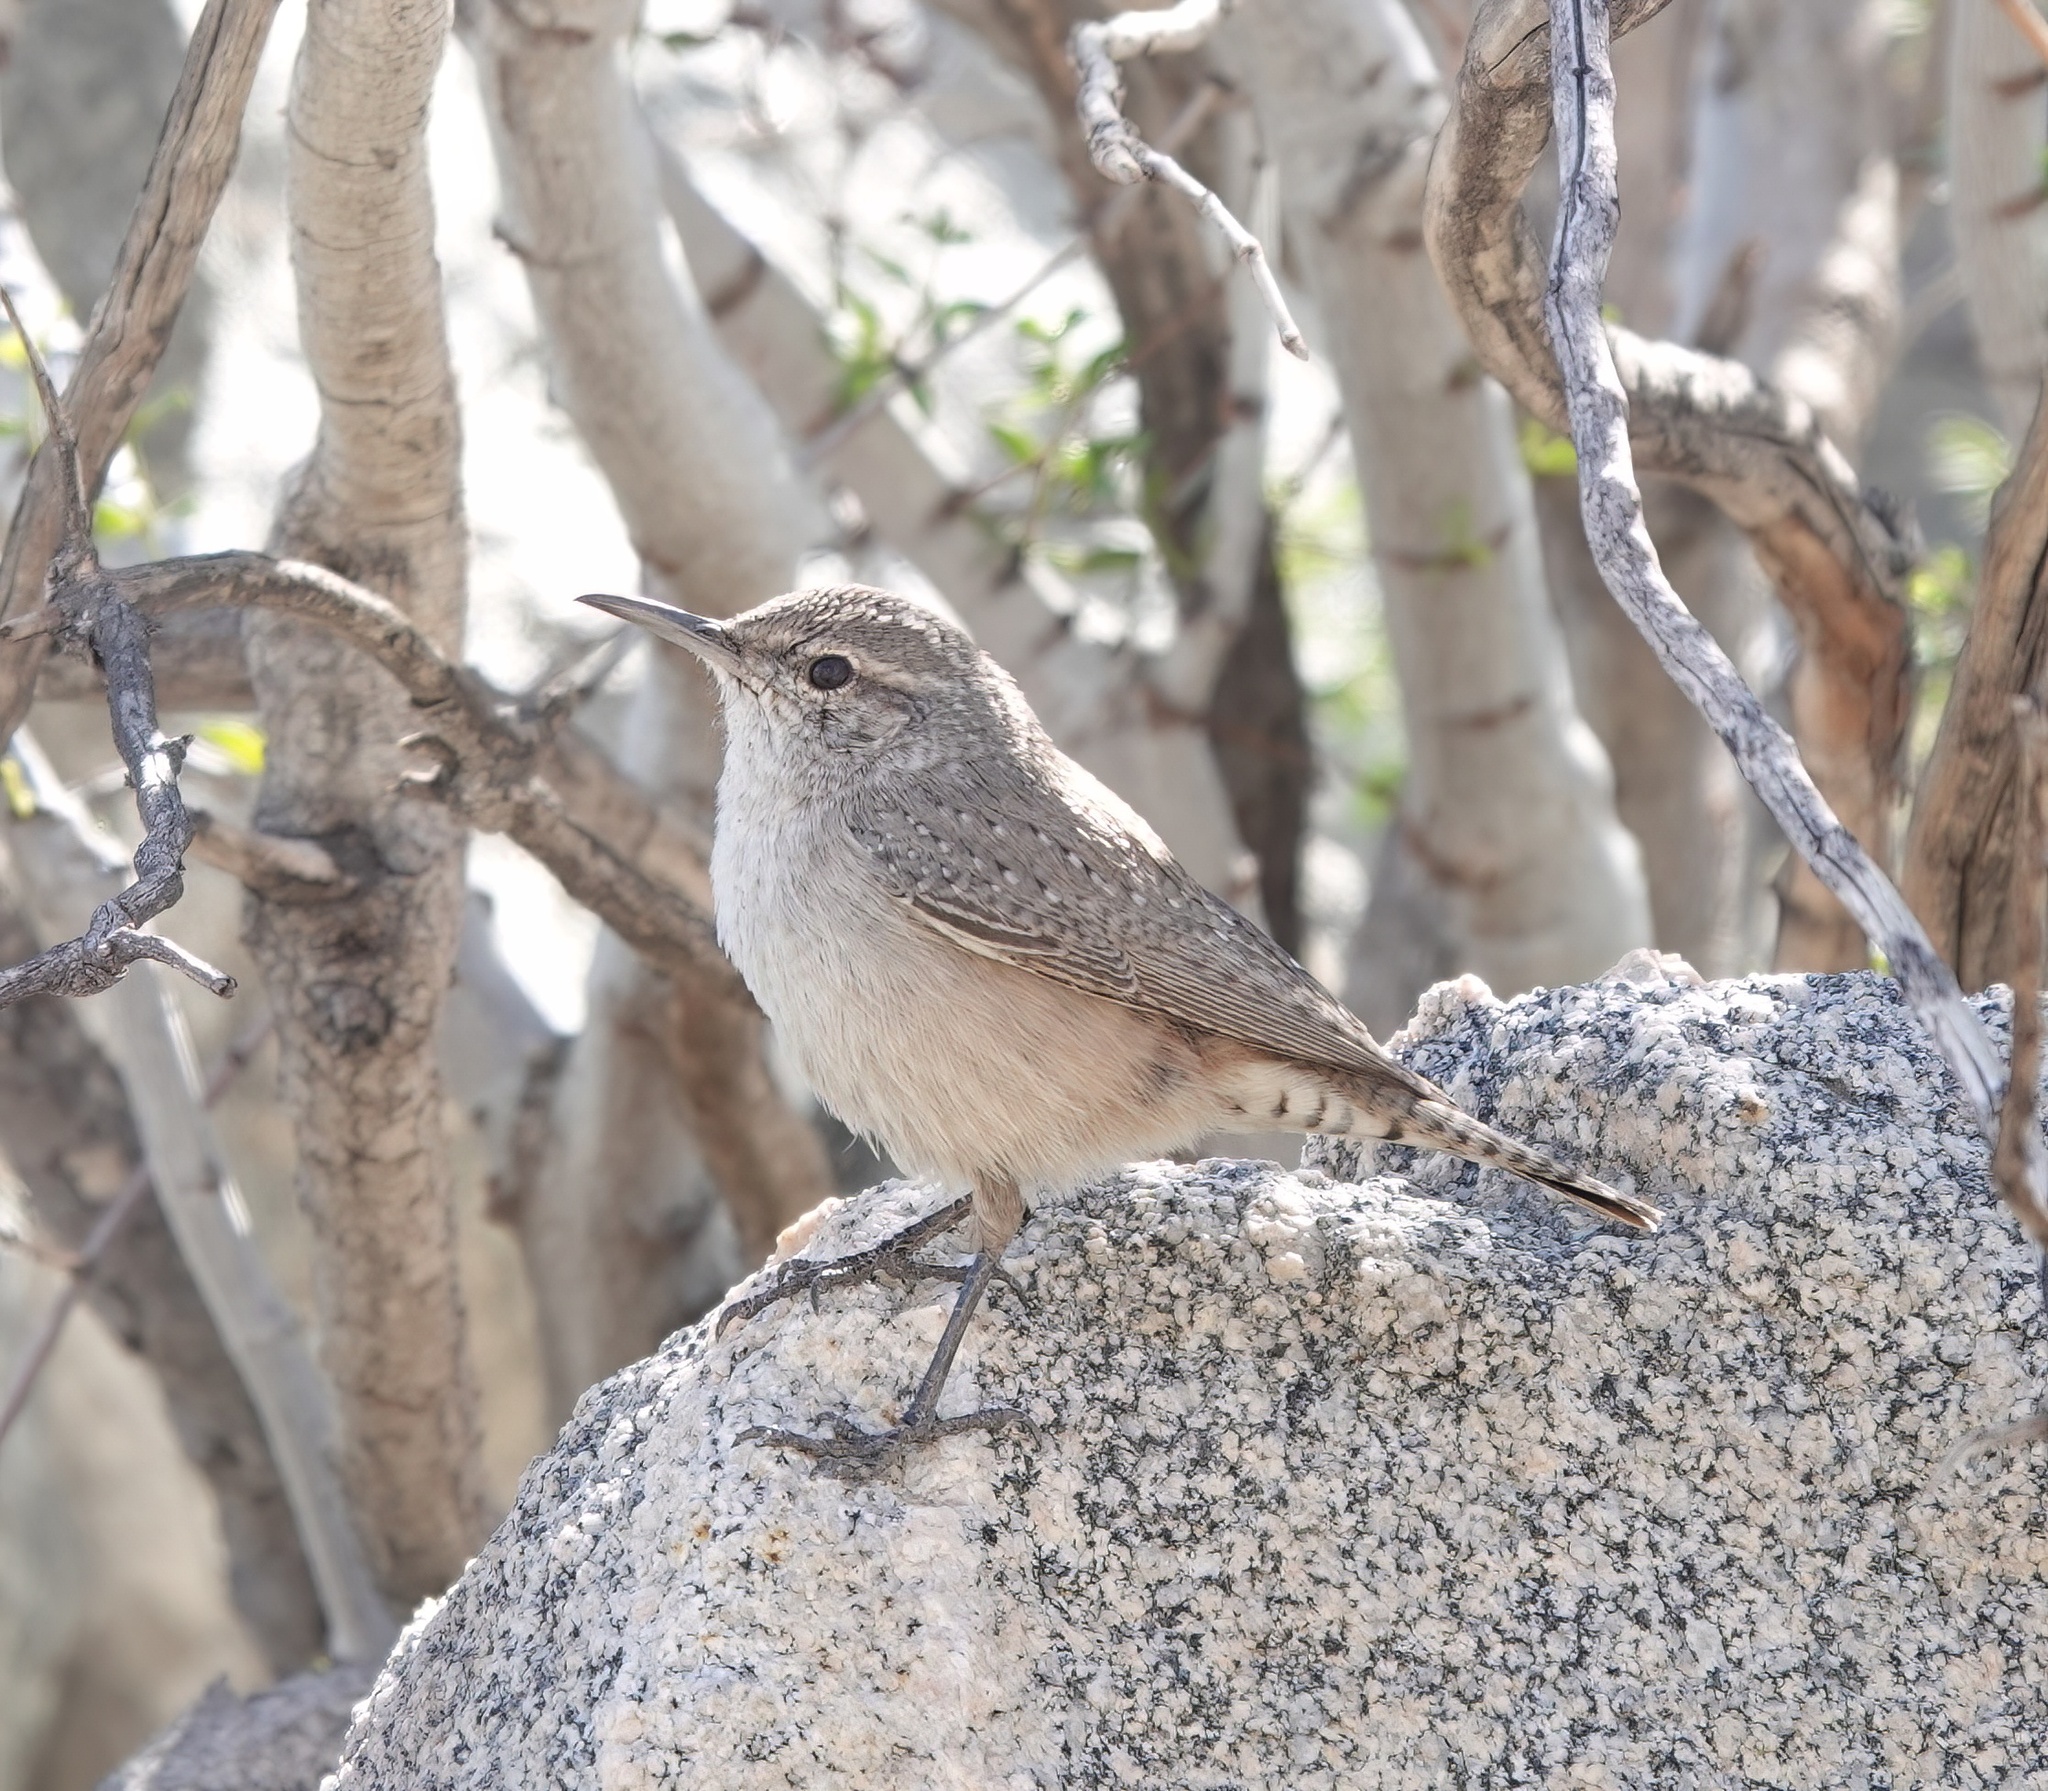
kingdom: Animalia
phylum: Chordata
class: Aves
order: Passeriformes
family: Troglodytidae
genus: Salpinctes
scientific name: Salpinctes obsoletus
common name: Rock wren
